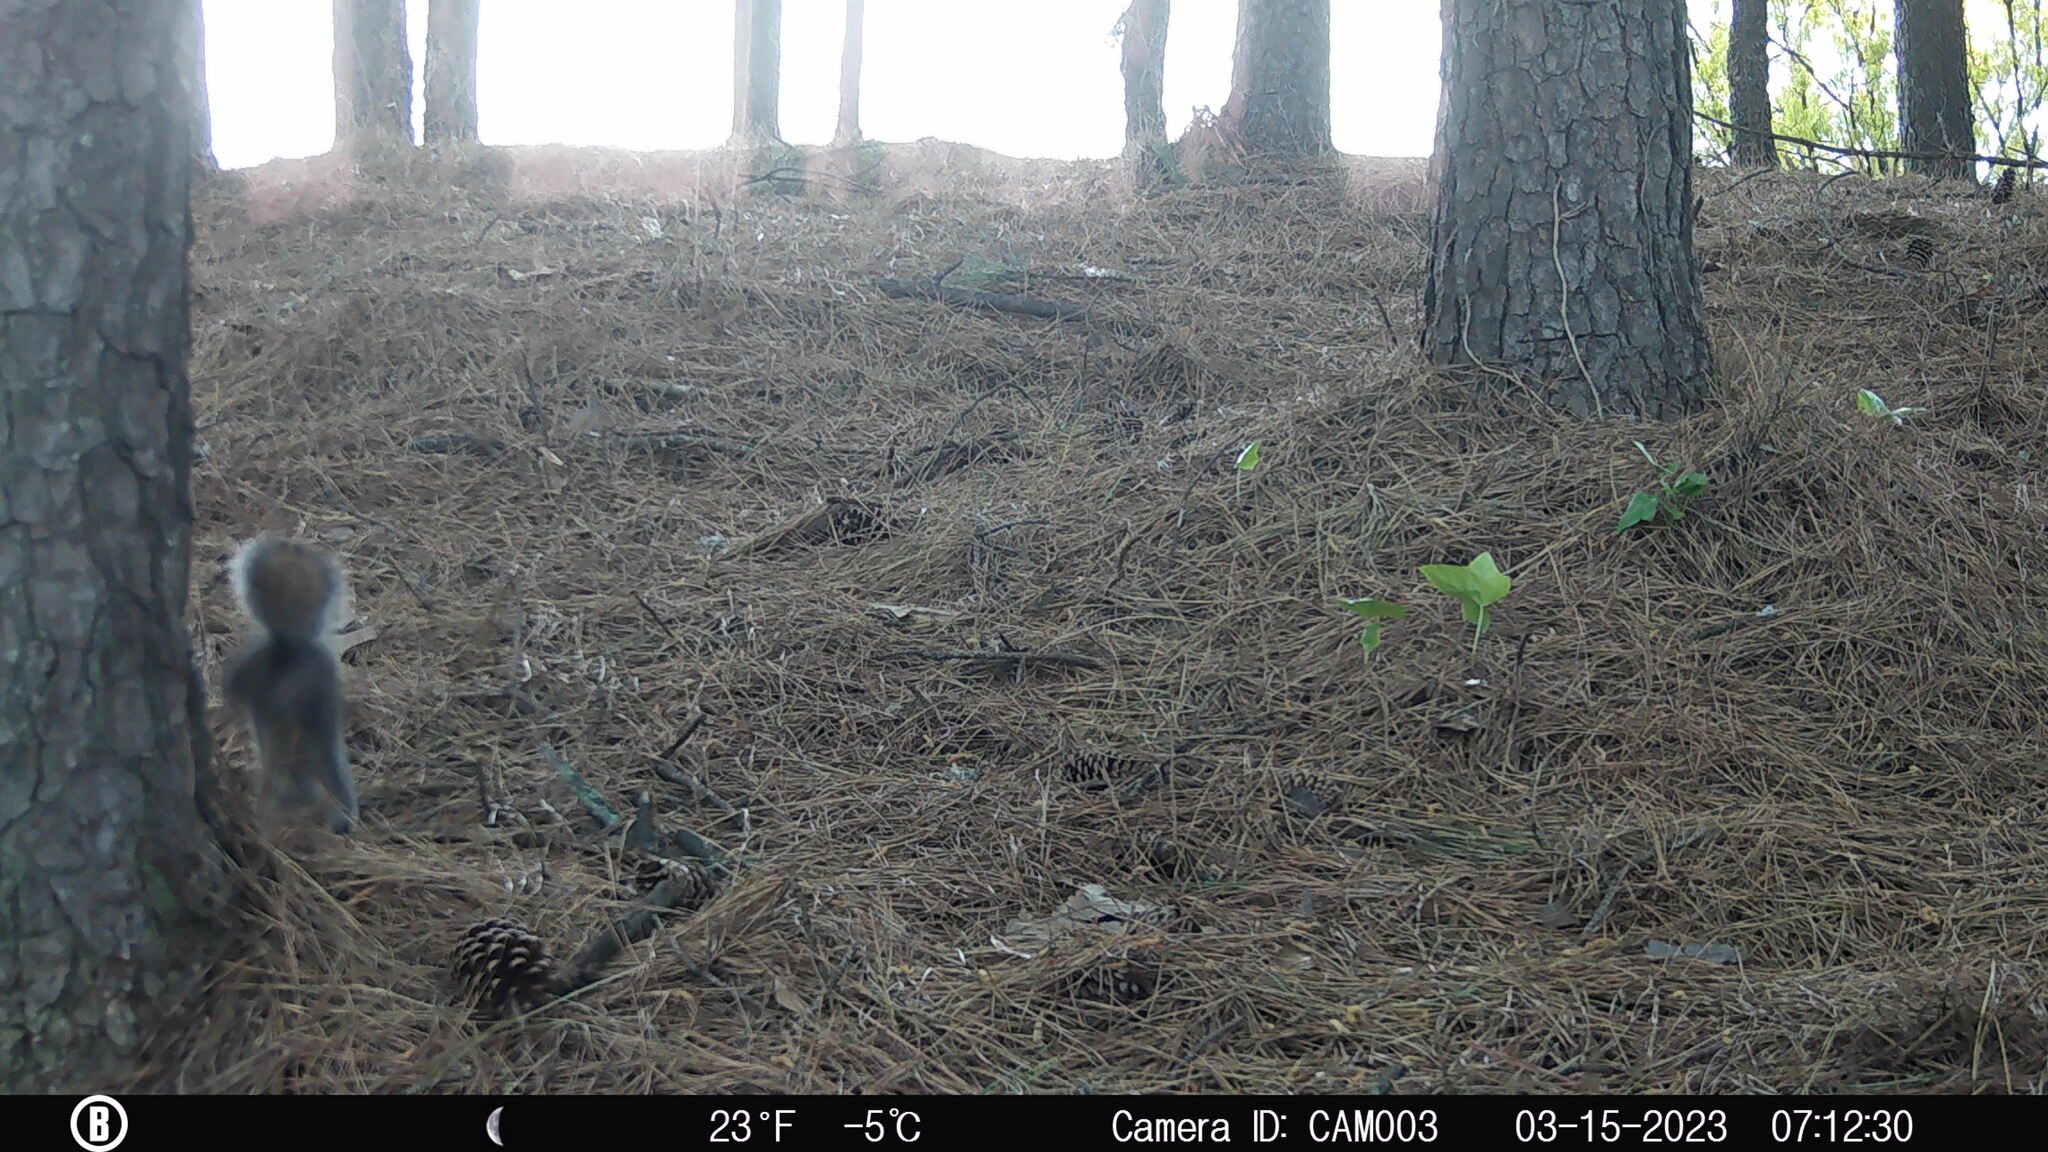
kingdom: Animalia
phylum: Chordata
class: Mammalia
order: Rodentia
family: Sciuridae
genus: Sciurus
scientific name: Sciurus carolinensis
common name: Eastern gray squirrel
